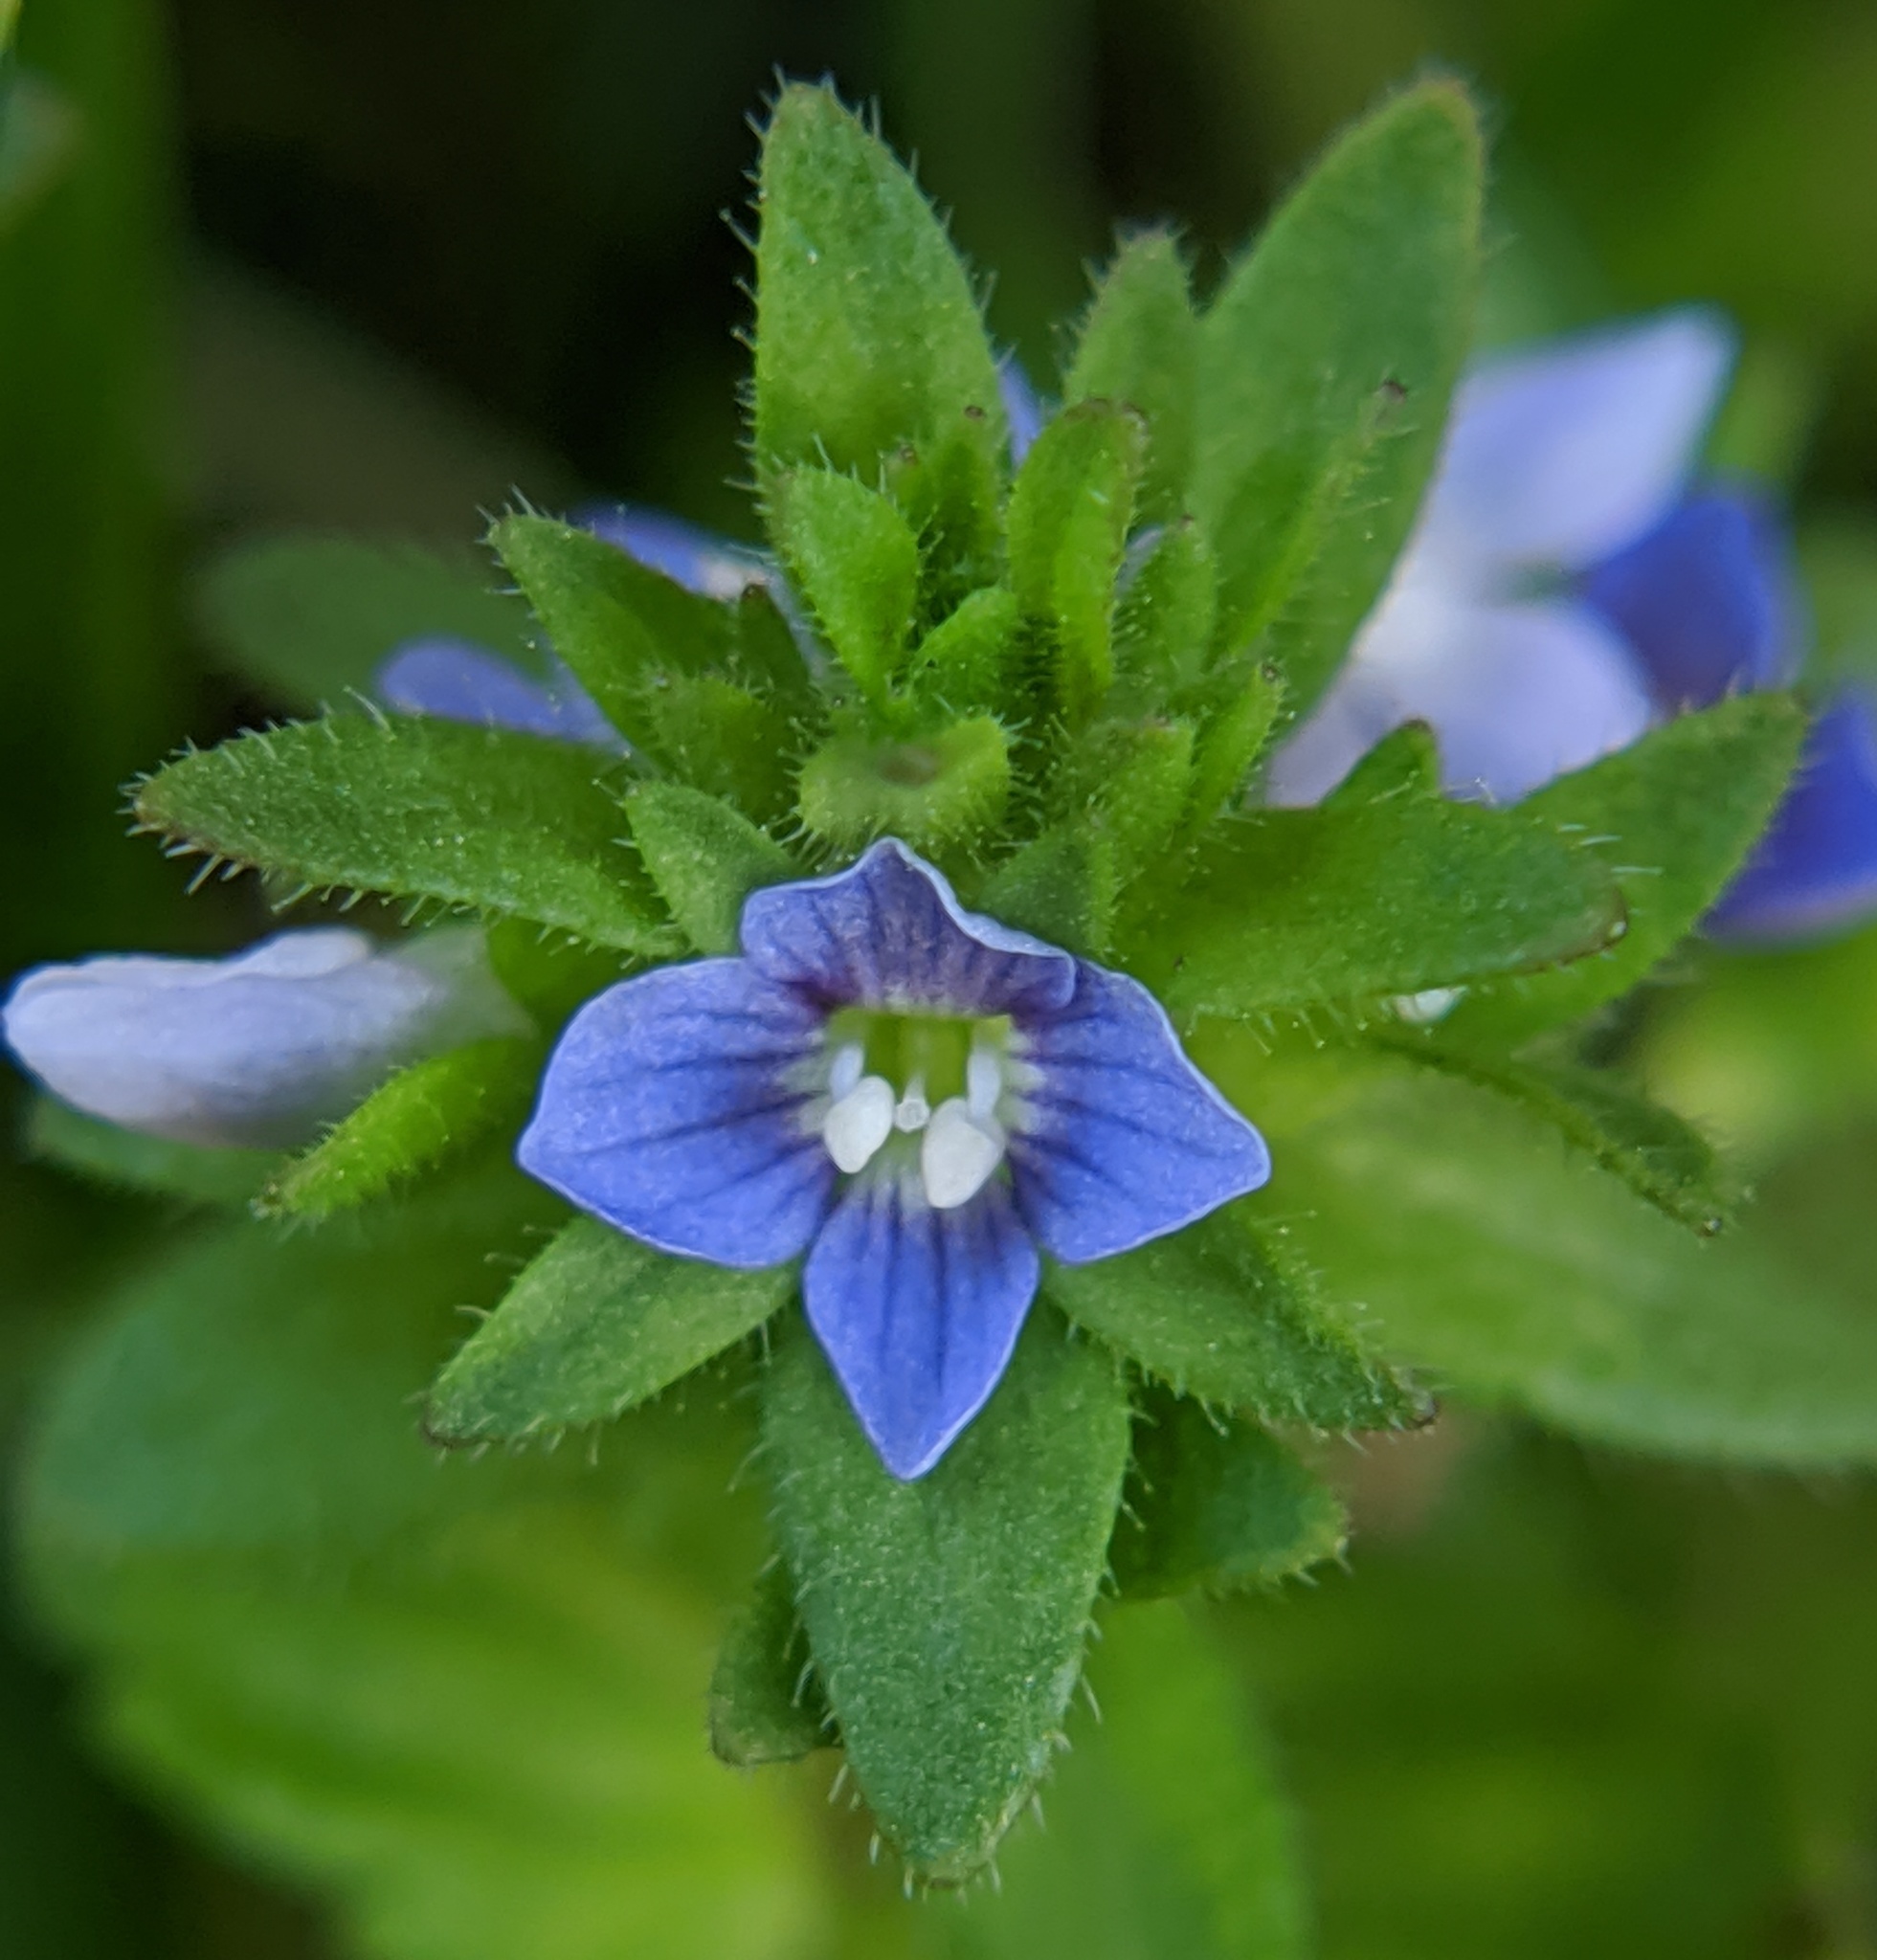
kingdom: Plantae
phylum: Tracheophyta
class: Magnoliopsida
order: Lamiales
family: Plantaginaceae
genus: Veronica
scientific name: Veronica arvensis
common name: Corn speedwell
